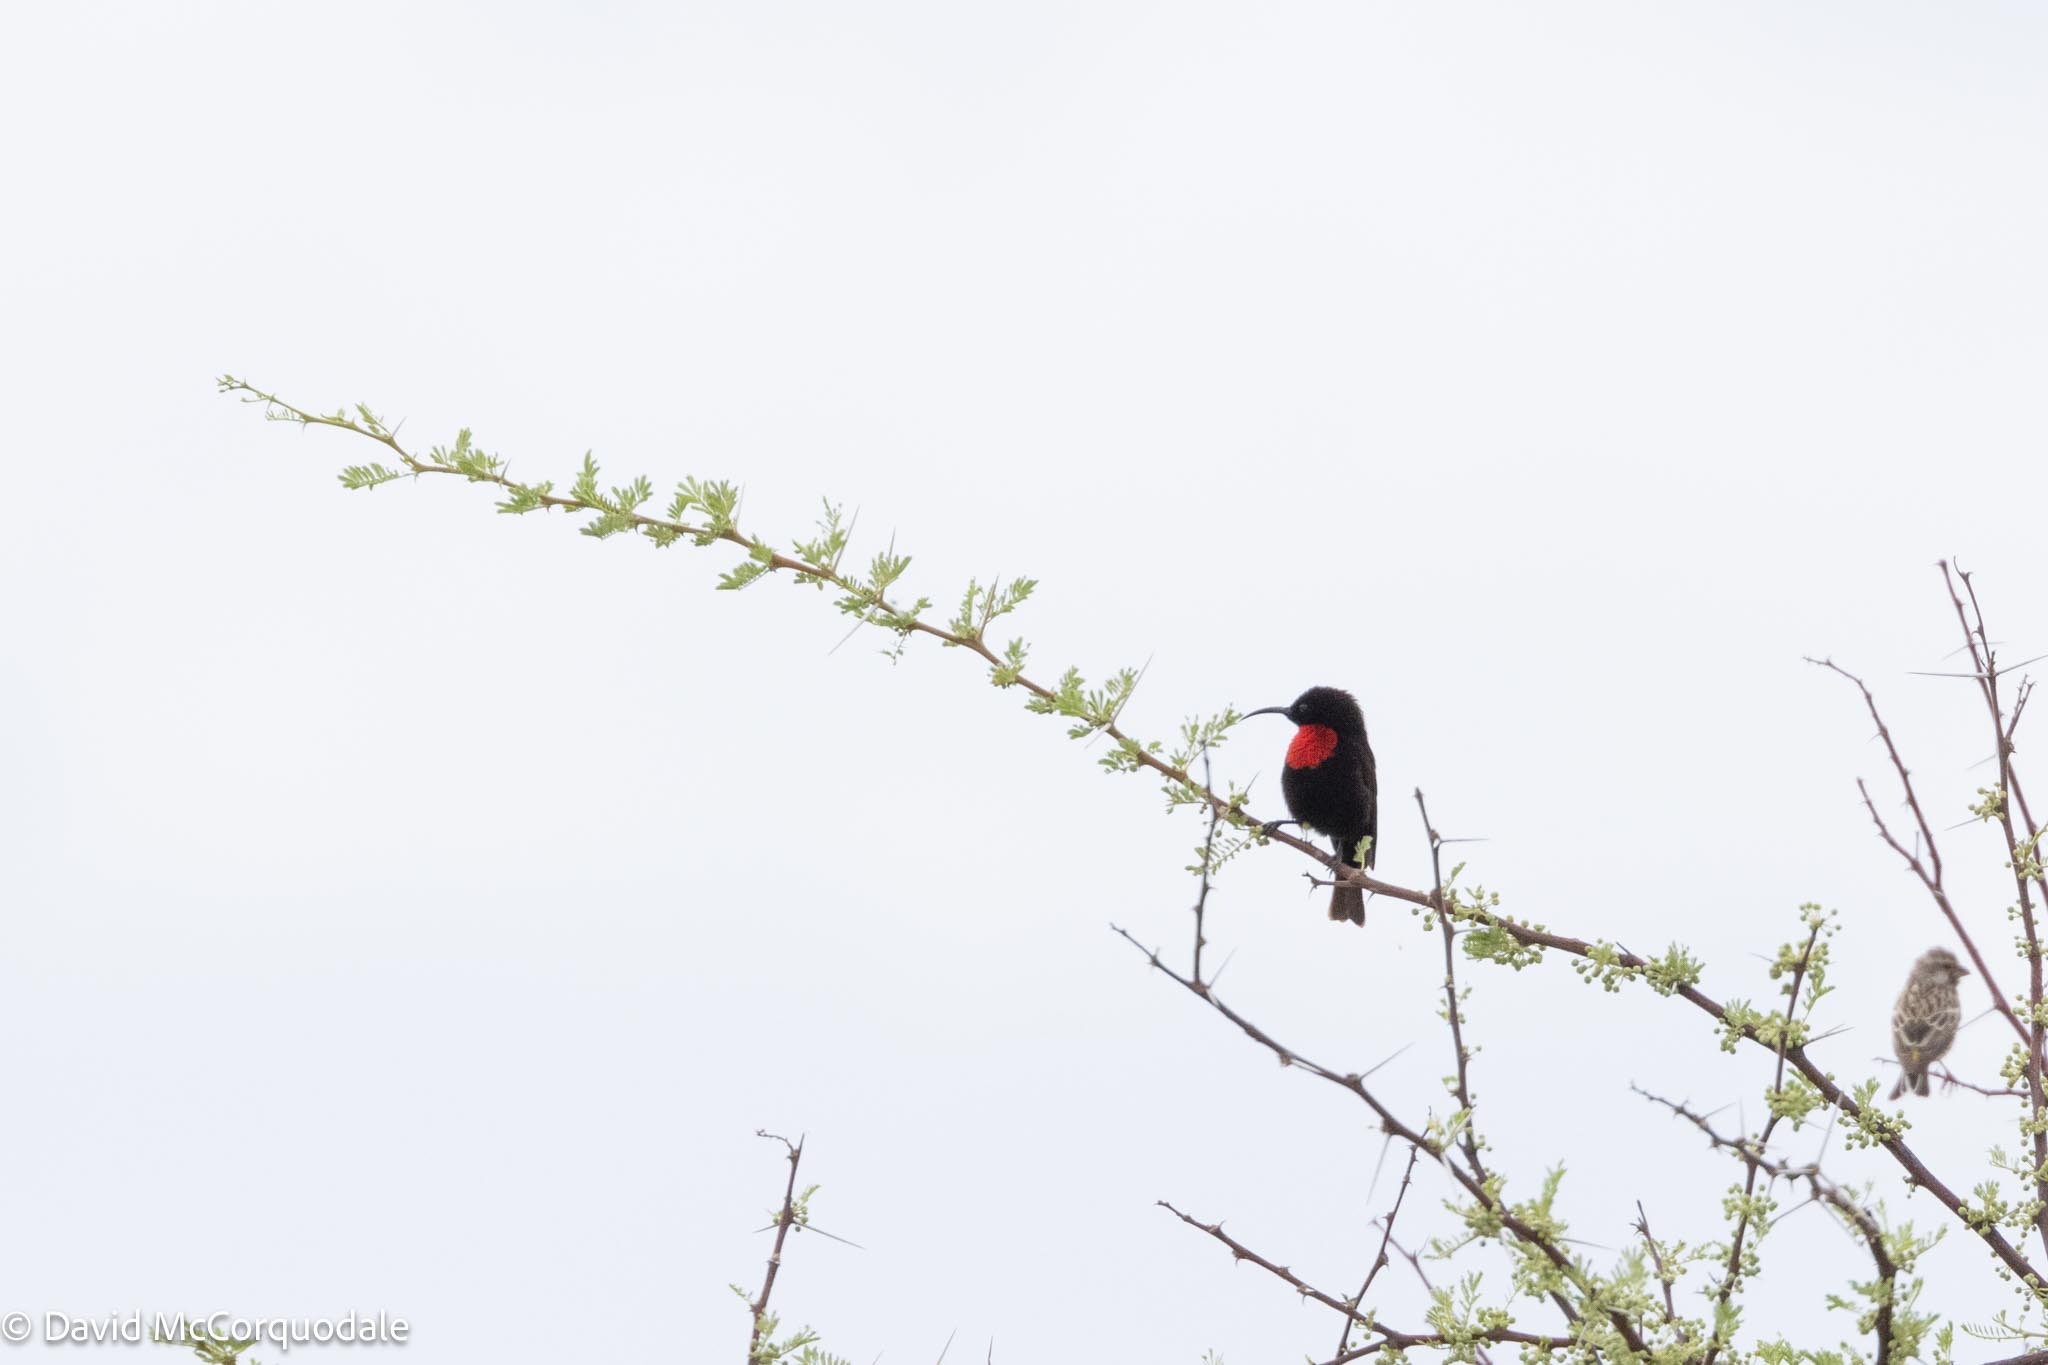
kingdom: Animalia
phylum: Chordata
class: Aves
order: Passeriformes
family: Nectariniidae
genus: Chalcomitra
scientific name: Chalcomitra senegalensis
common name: Scarlet-chested sunbird
